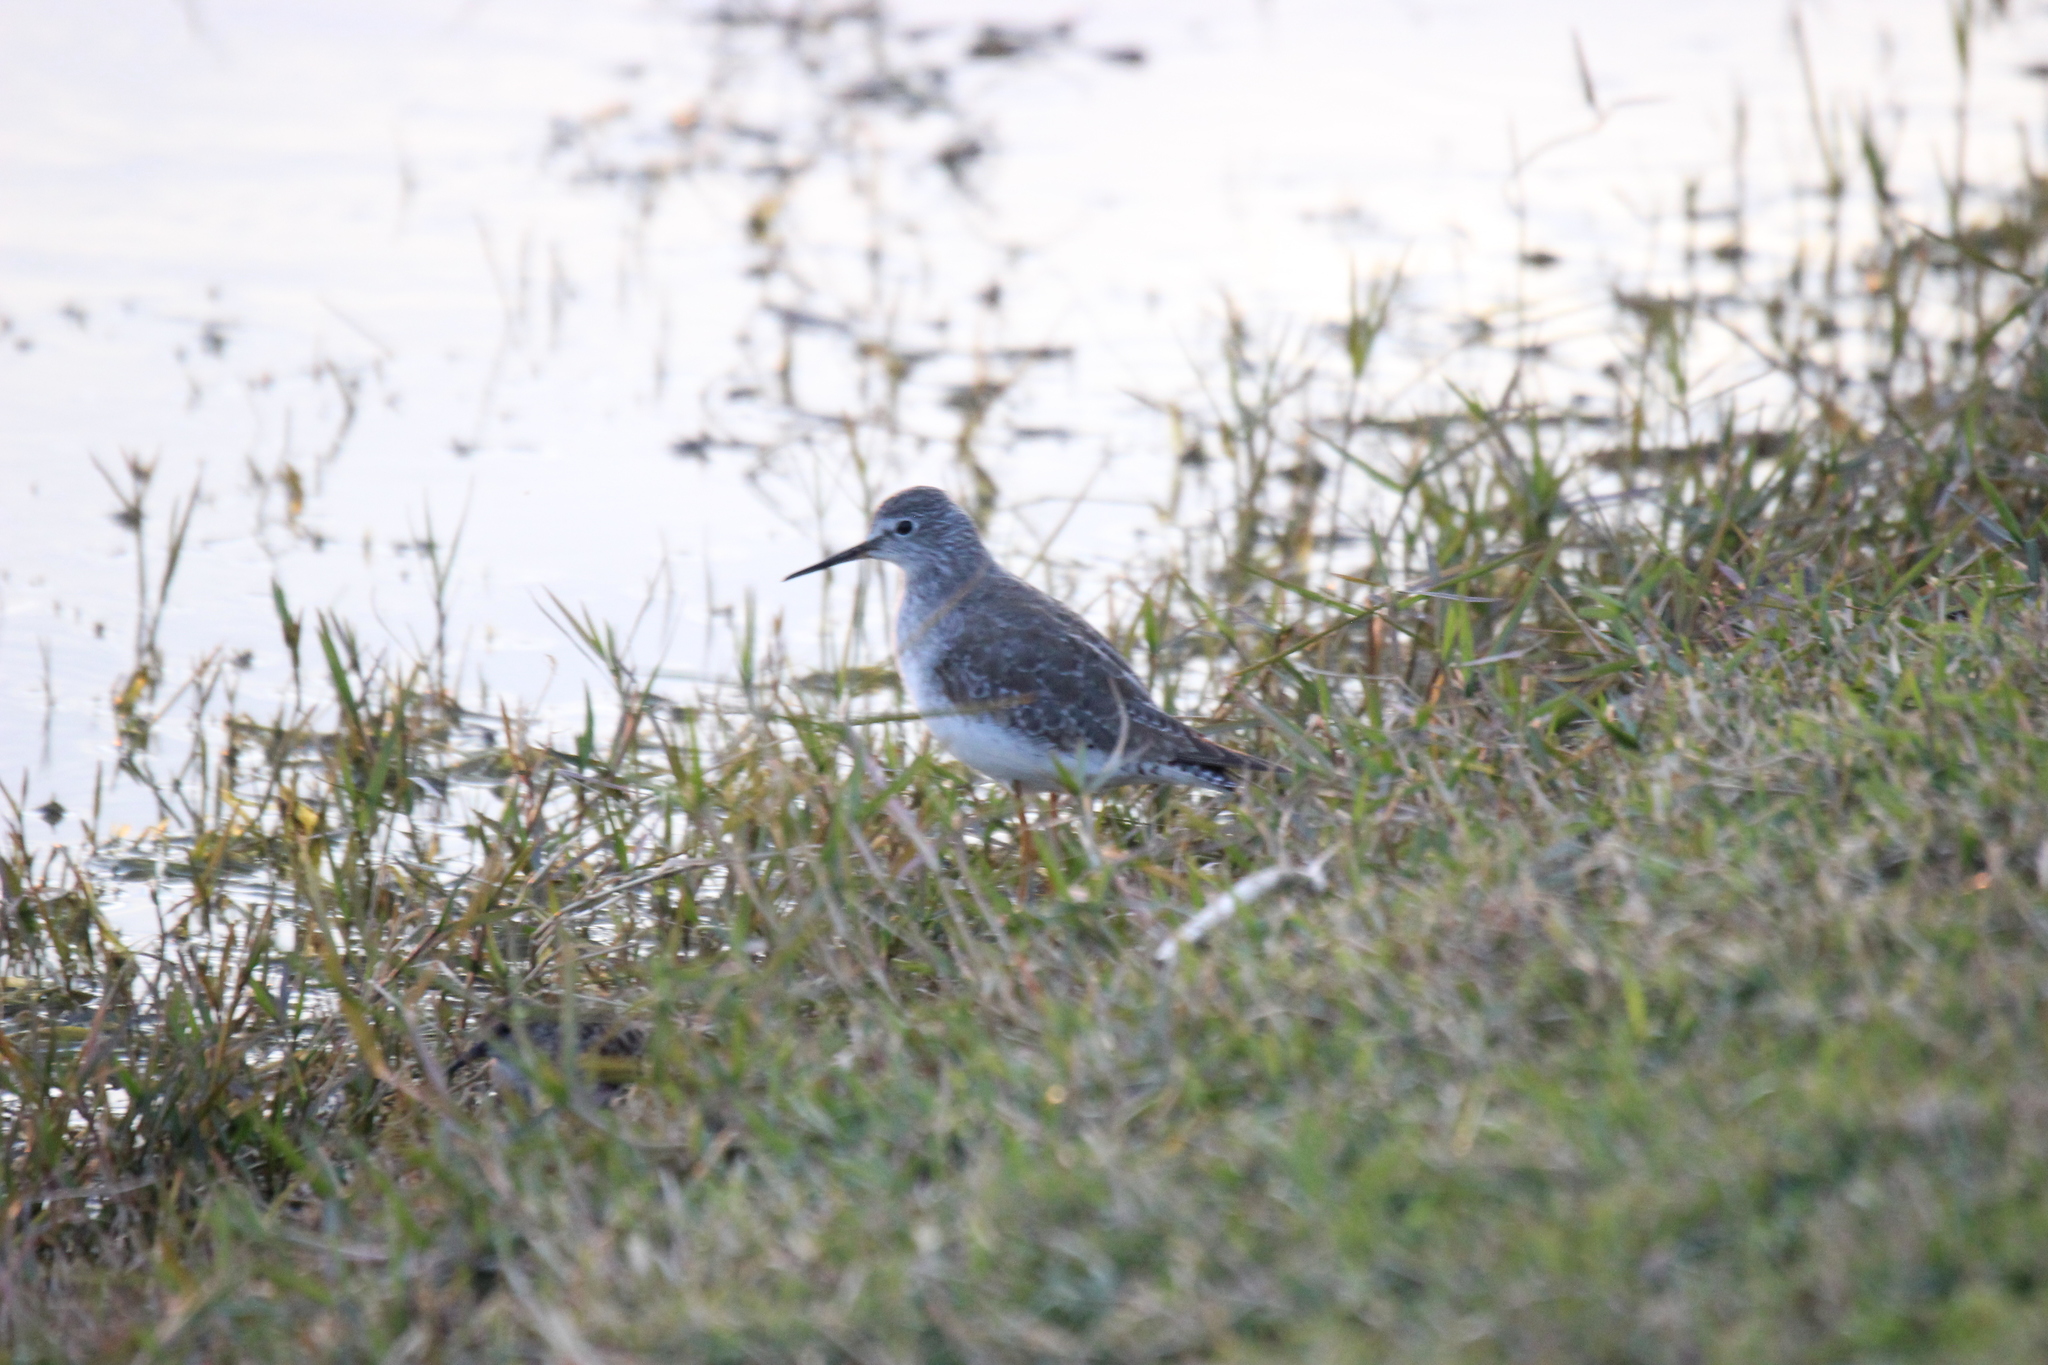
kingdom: Animalia
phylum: Chordata
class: Aves
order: Charadriiformes
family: Scolopacidae
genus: Tringa
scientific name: Tringa flavipes
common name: Lesser yellowlegs
